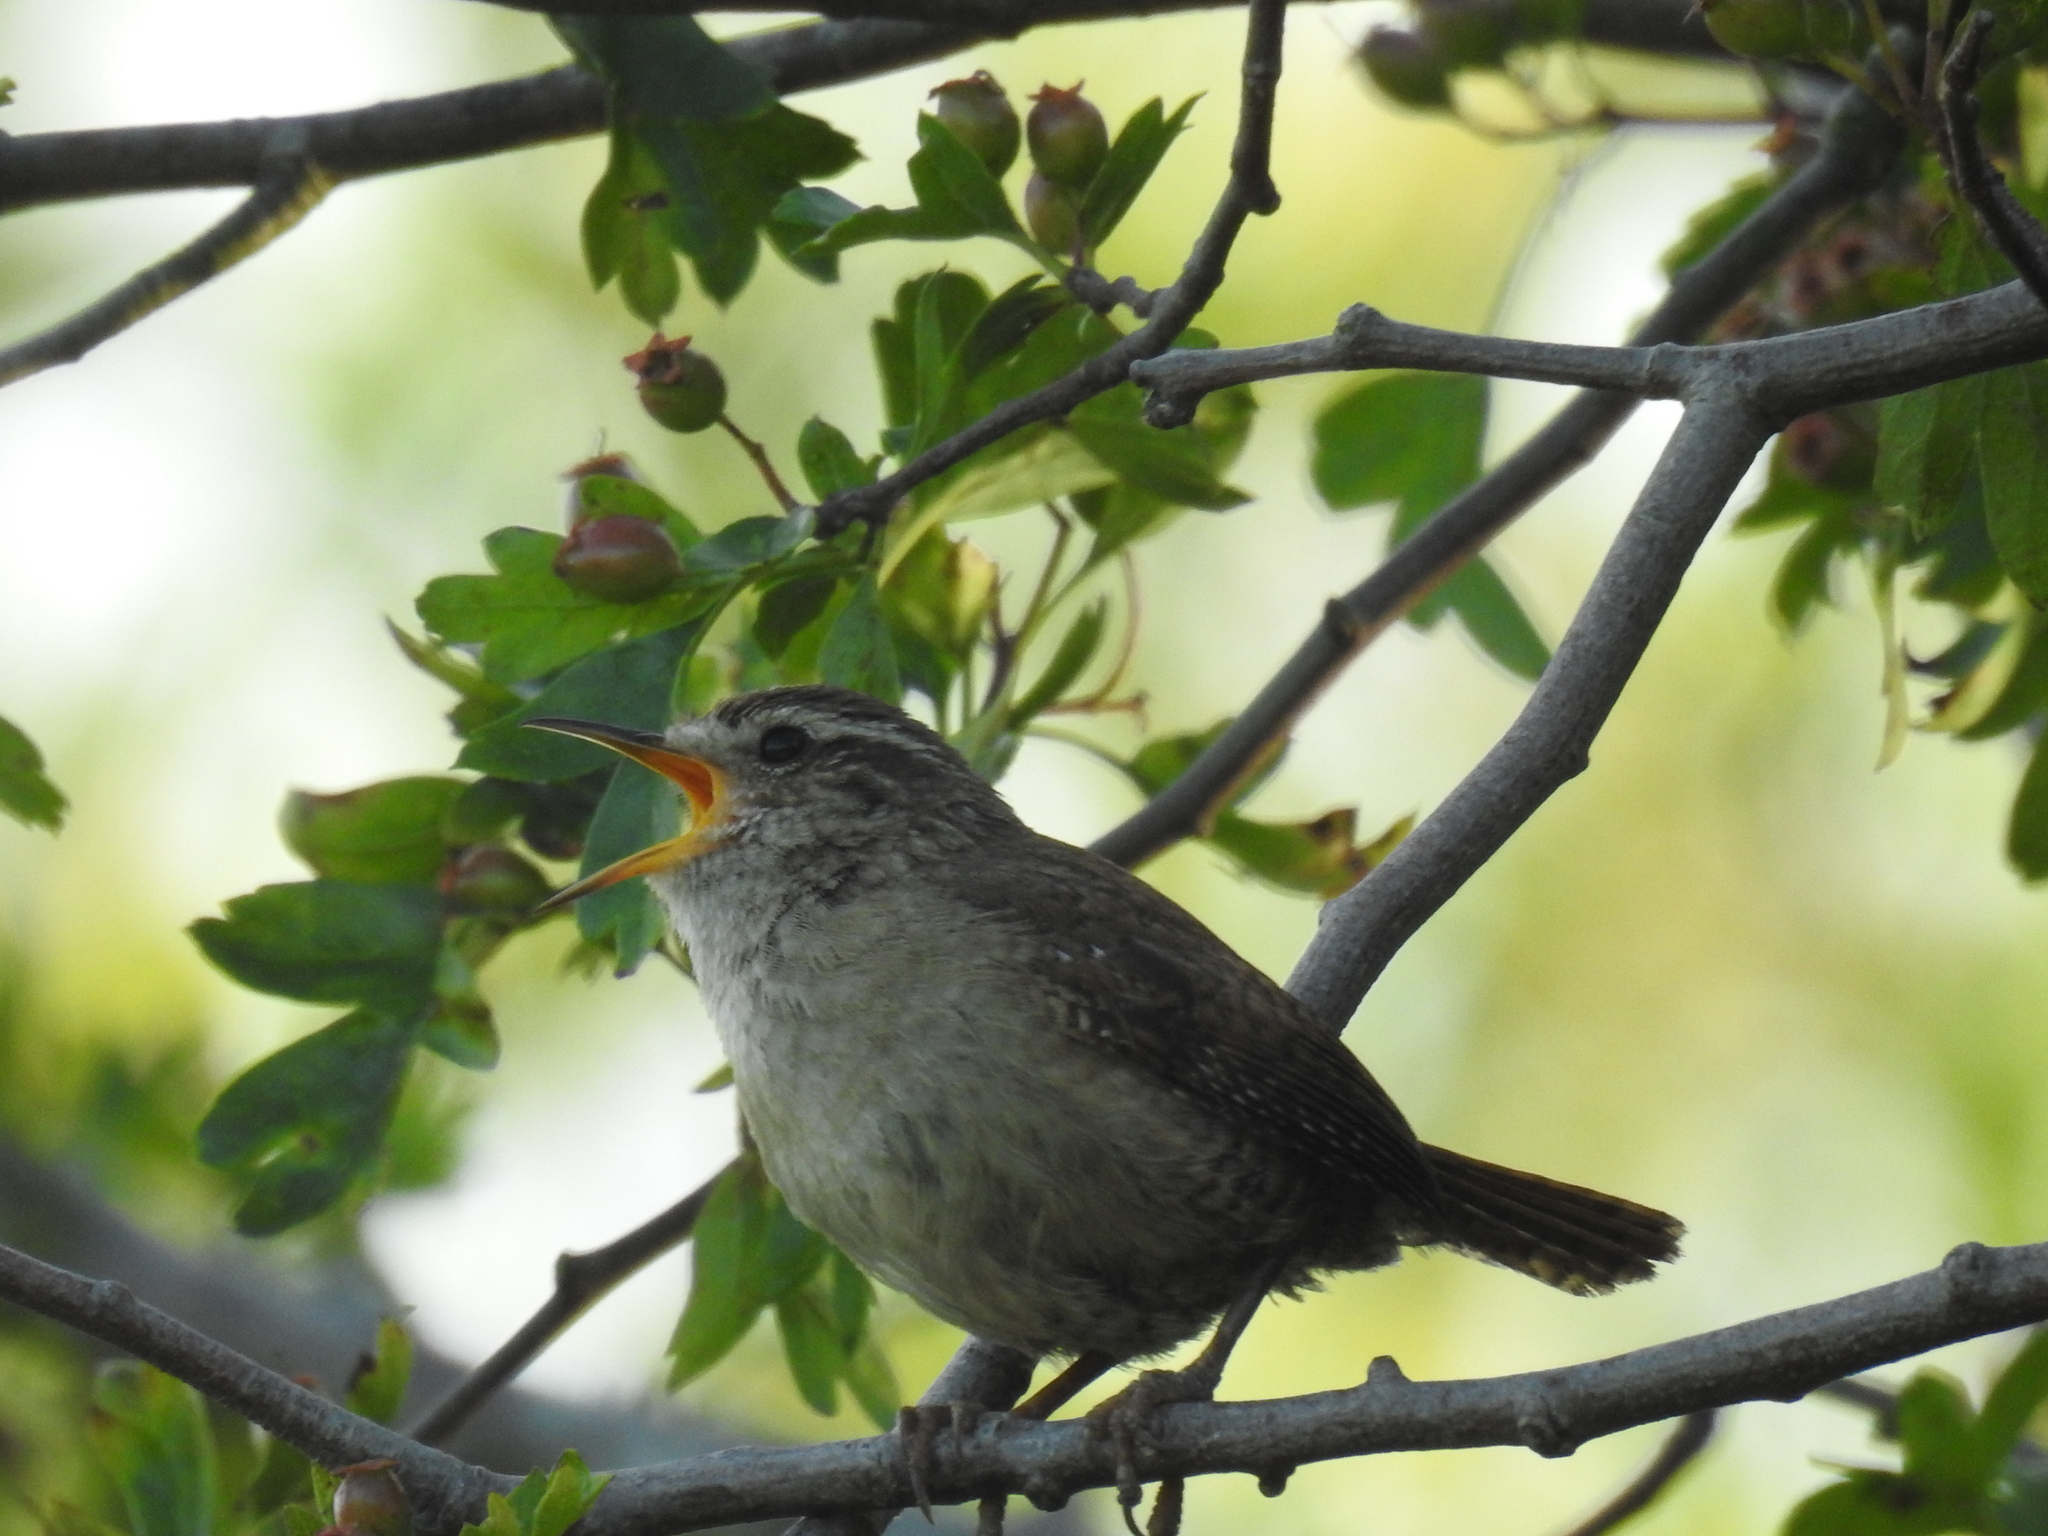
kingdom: Animalia
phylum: Chordata
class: Aves
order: Passeriformes
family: Troglodytidae
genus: Troglodytes
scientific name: Troglodytes troglodytes
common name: Eurasian wren
